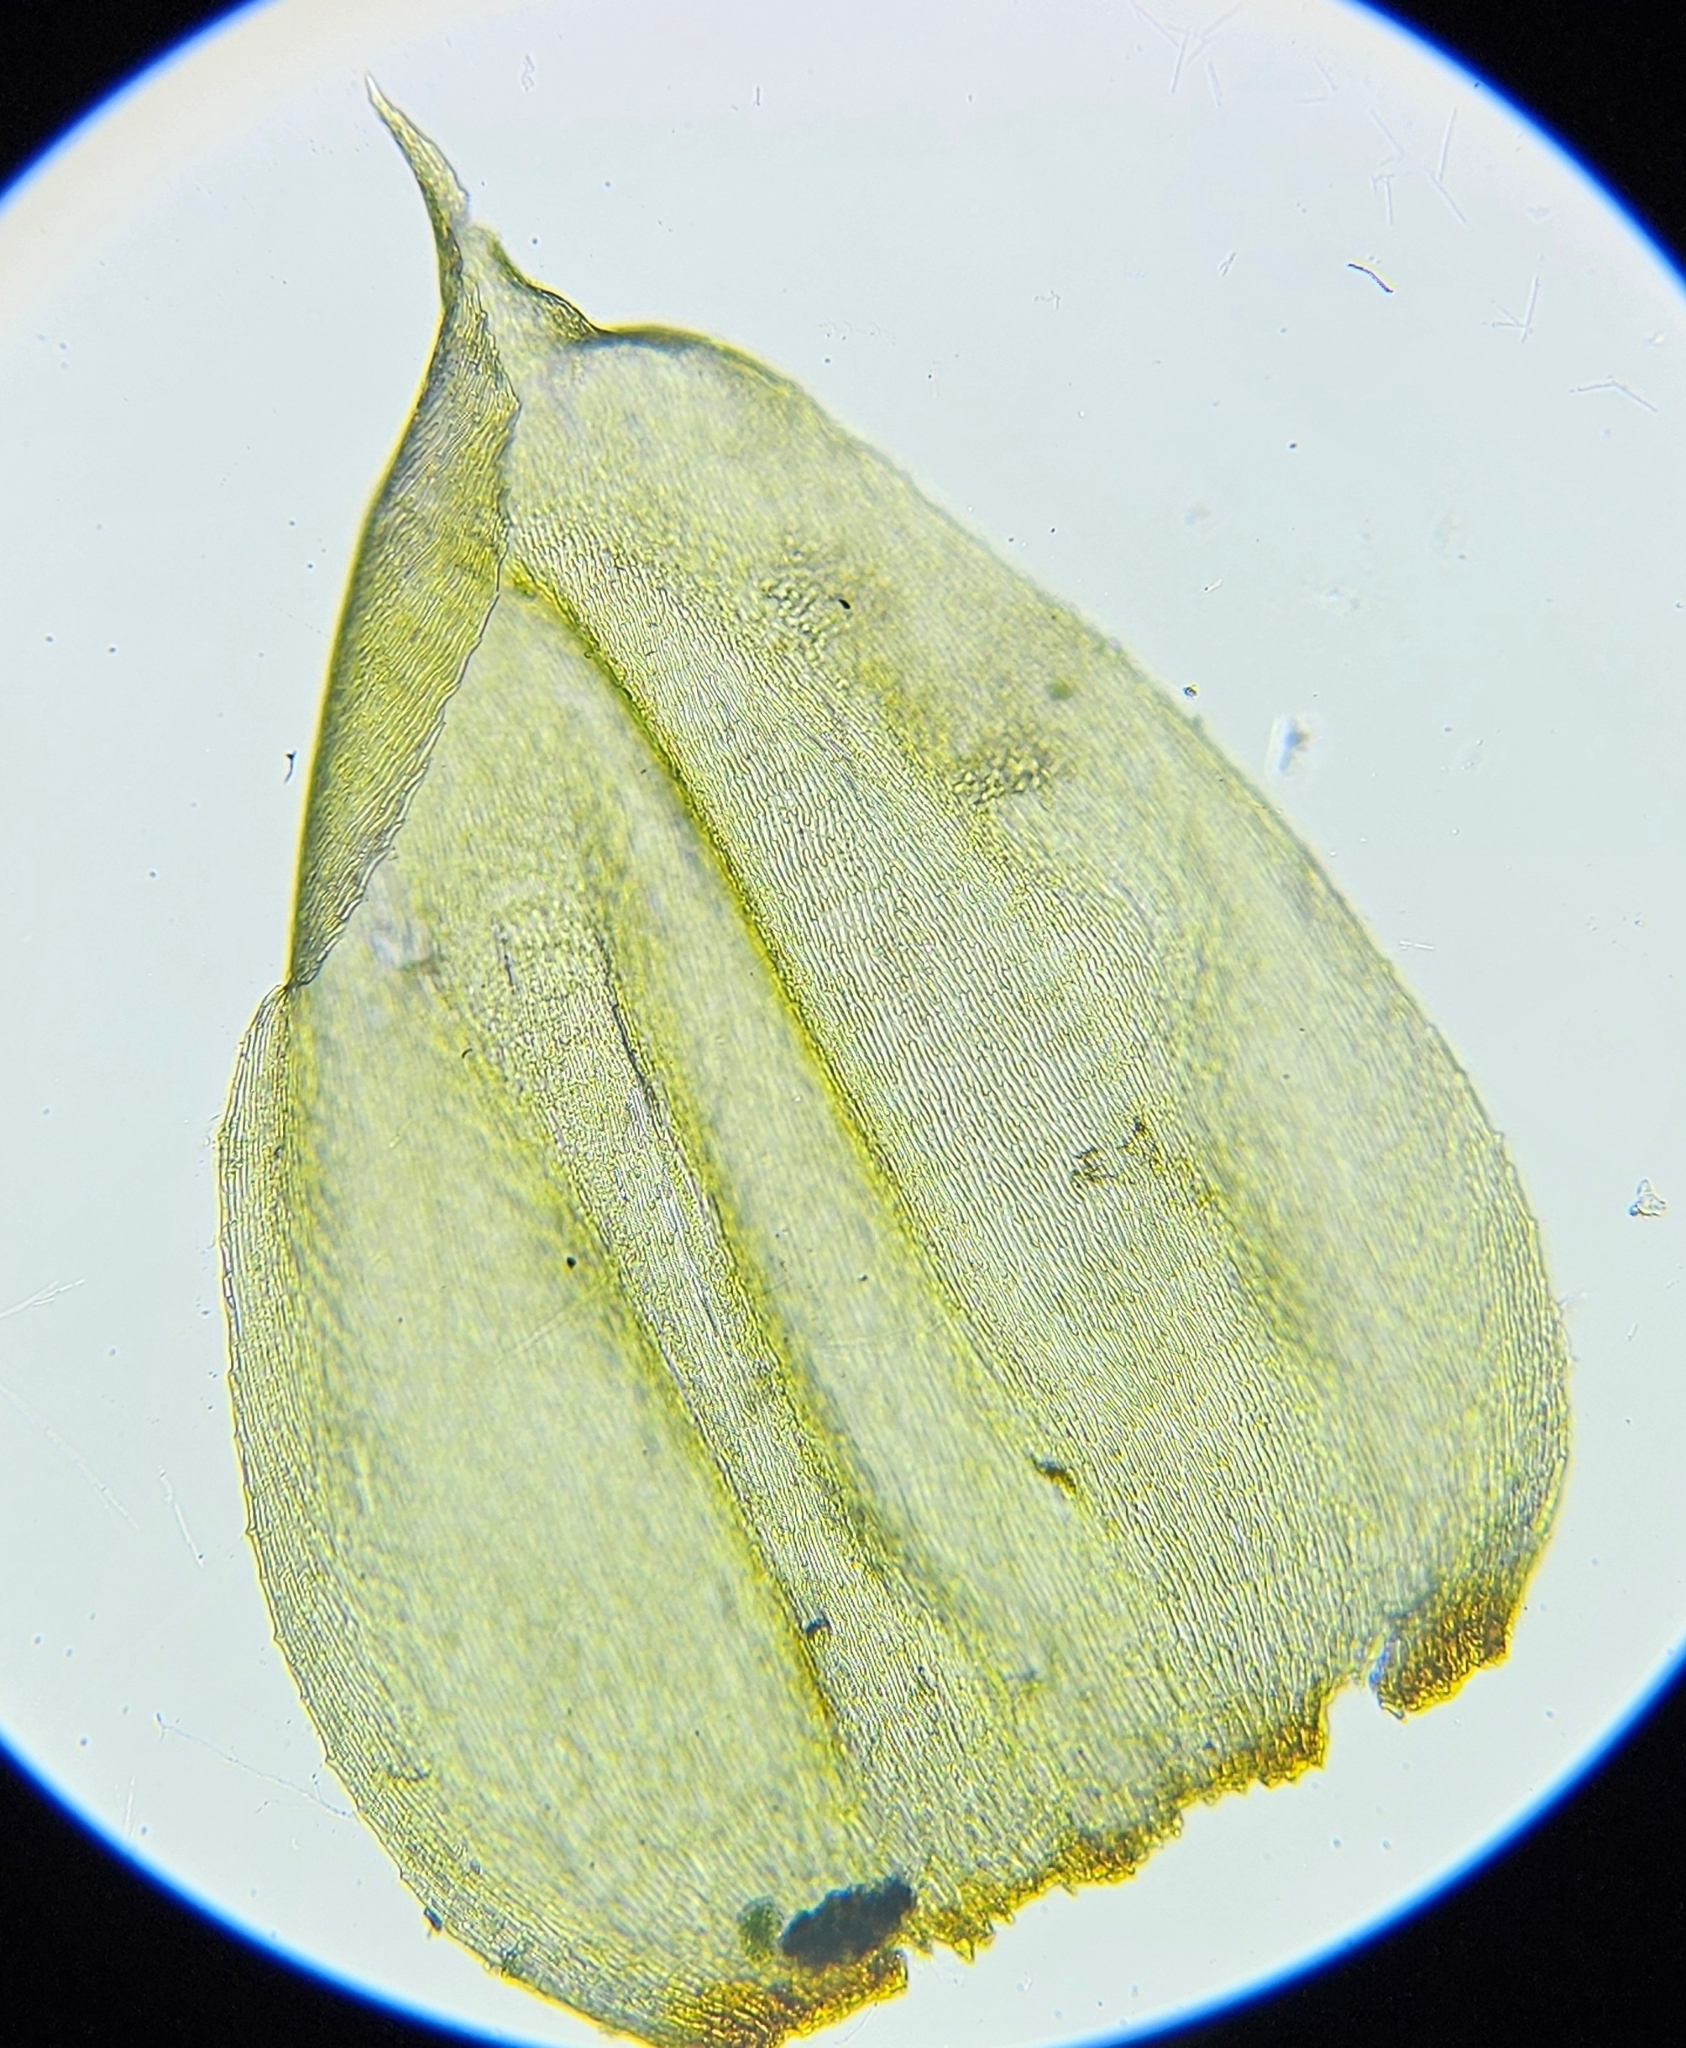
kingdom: Plantae
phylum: Bryophyta
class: Bryopsida
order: Hypnales
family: Hylocomiaceae
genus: Pleurozium
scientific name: Pleurozium schreberi
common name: Red-stemmed feather moss
